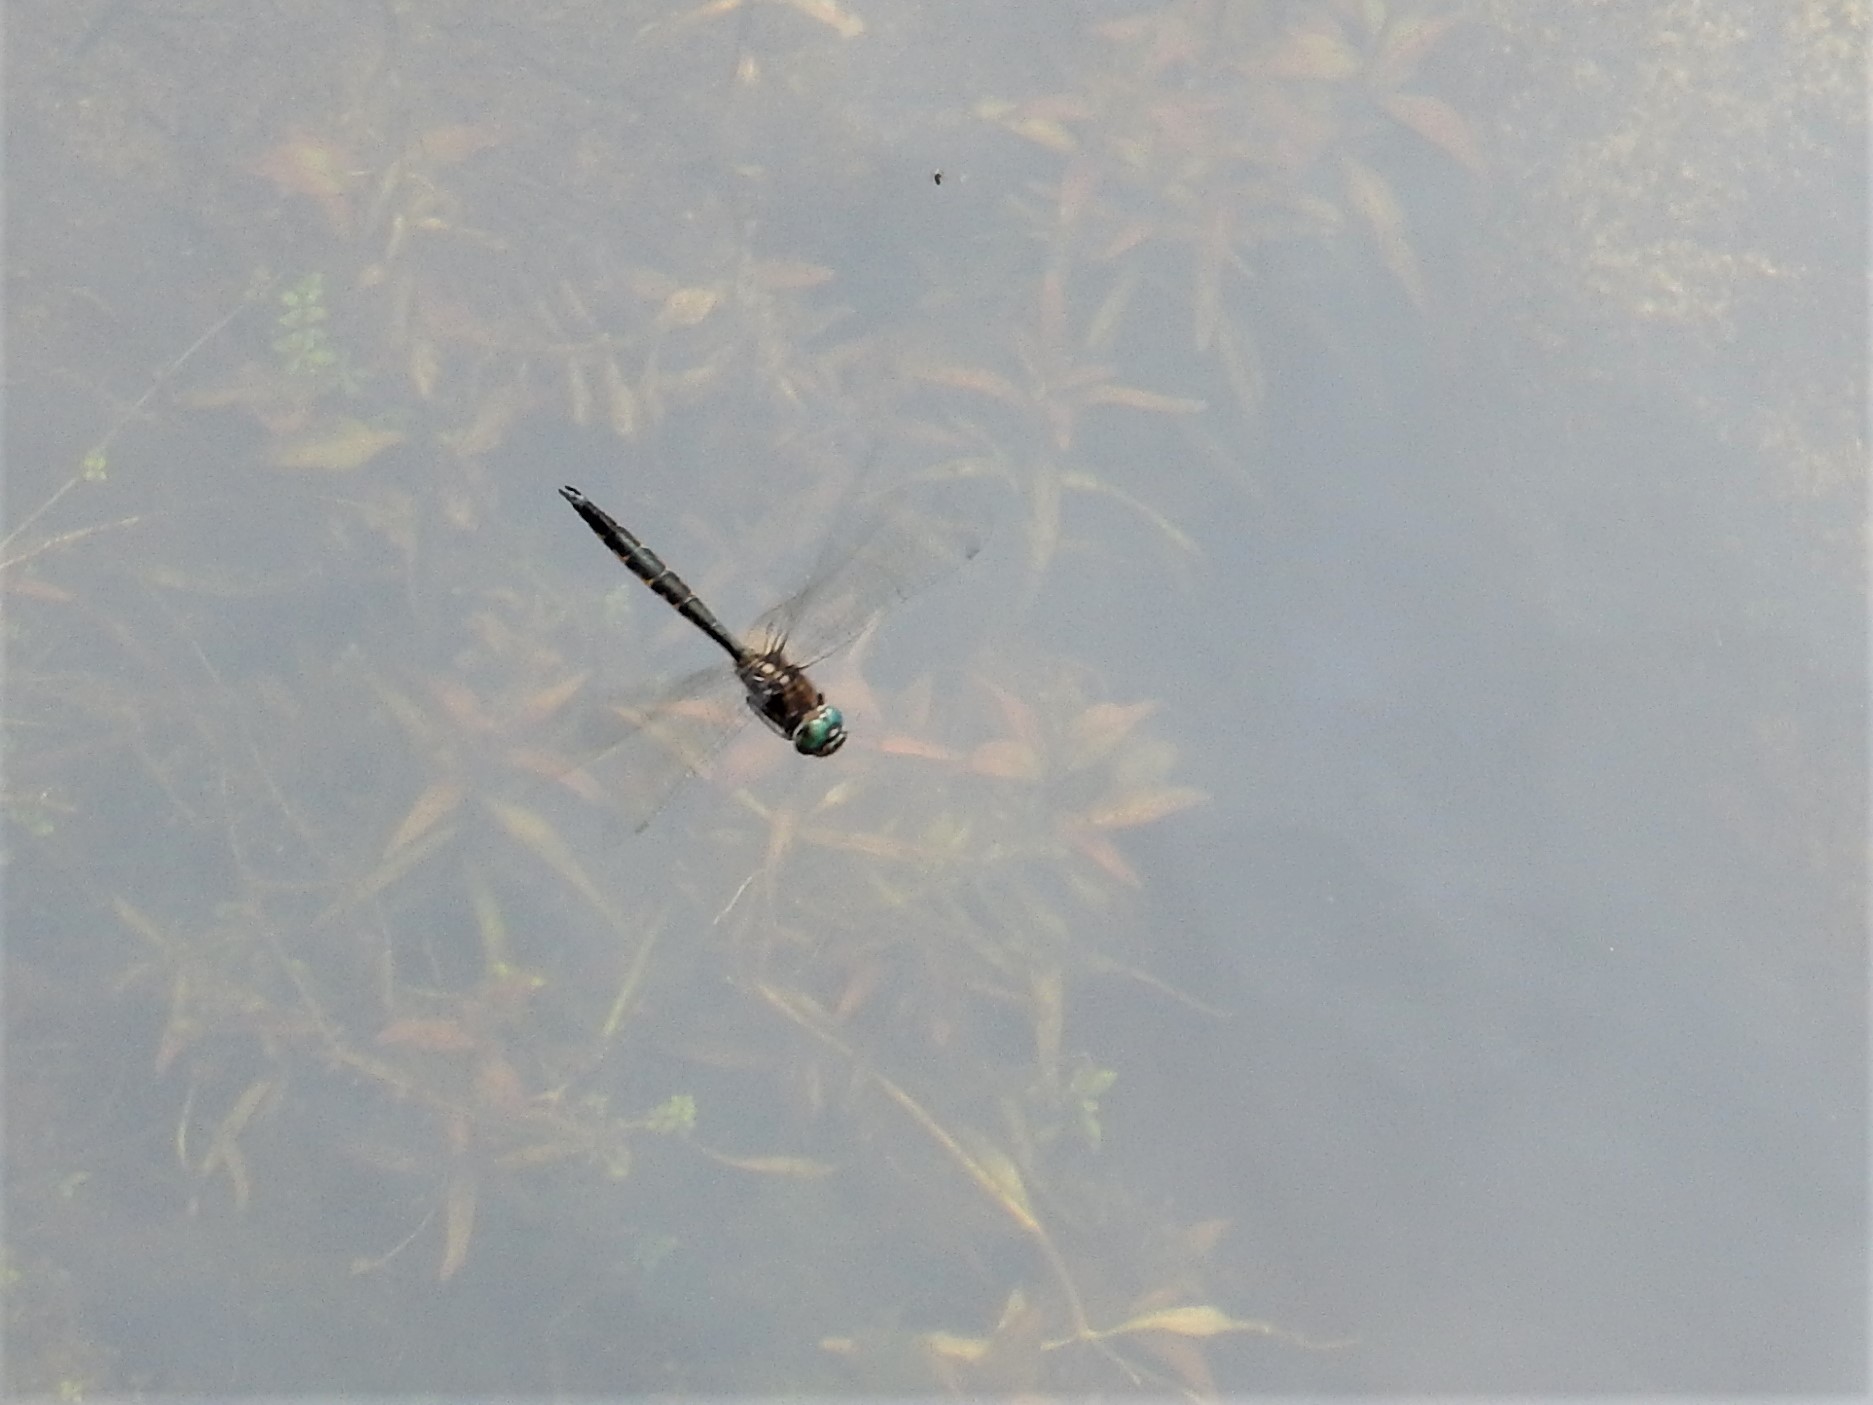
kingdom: Animalia
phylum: Arthropoda
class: Insecta
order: Odonata
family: Corduliidae
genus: Hemicordulia
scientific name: Hemicordulia armstrongi
